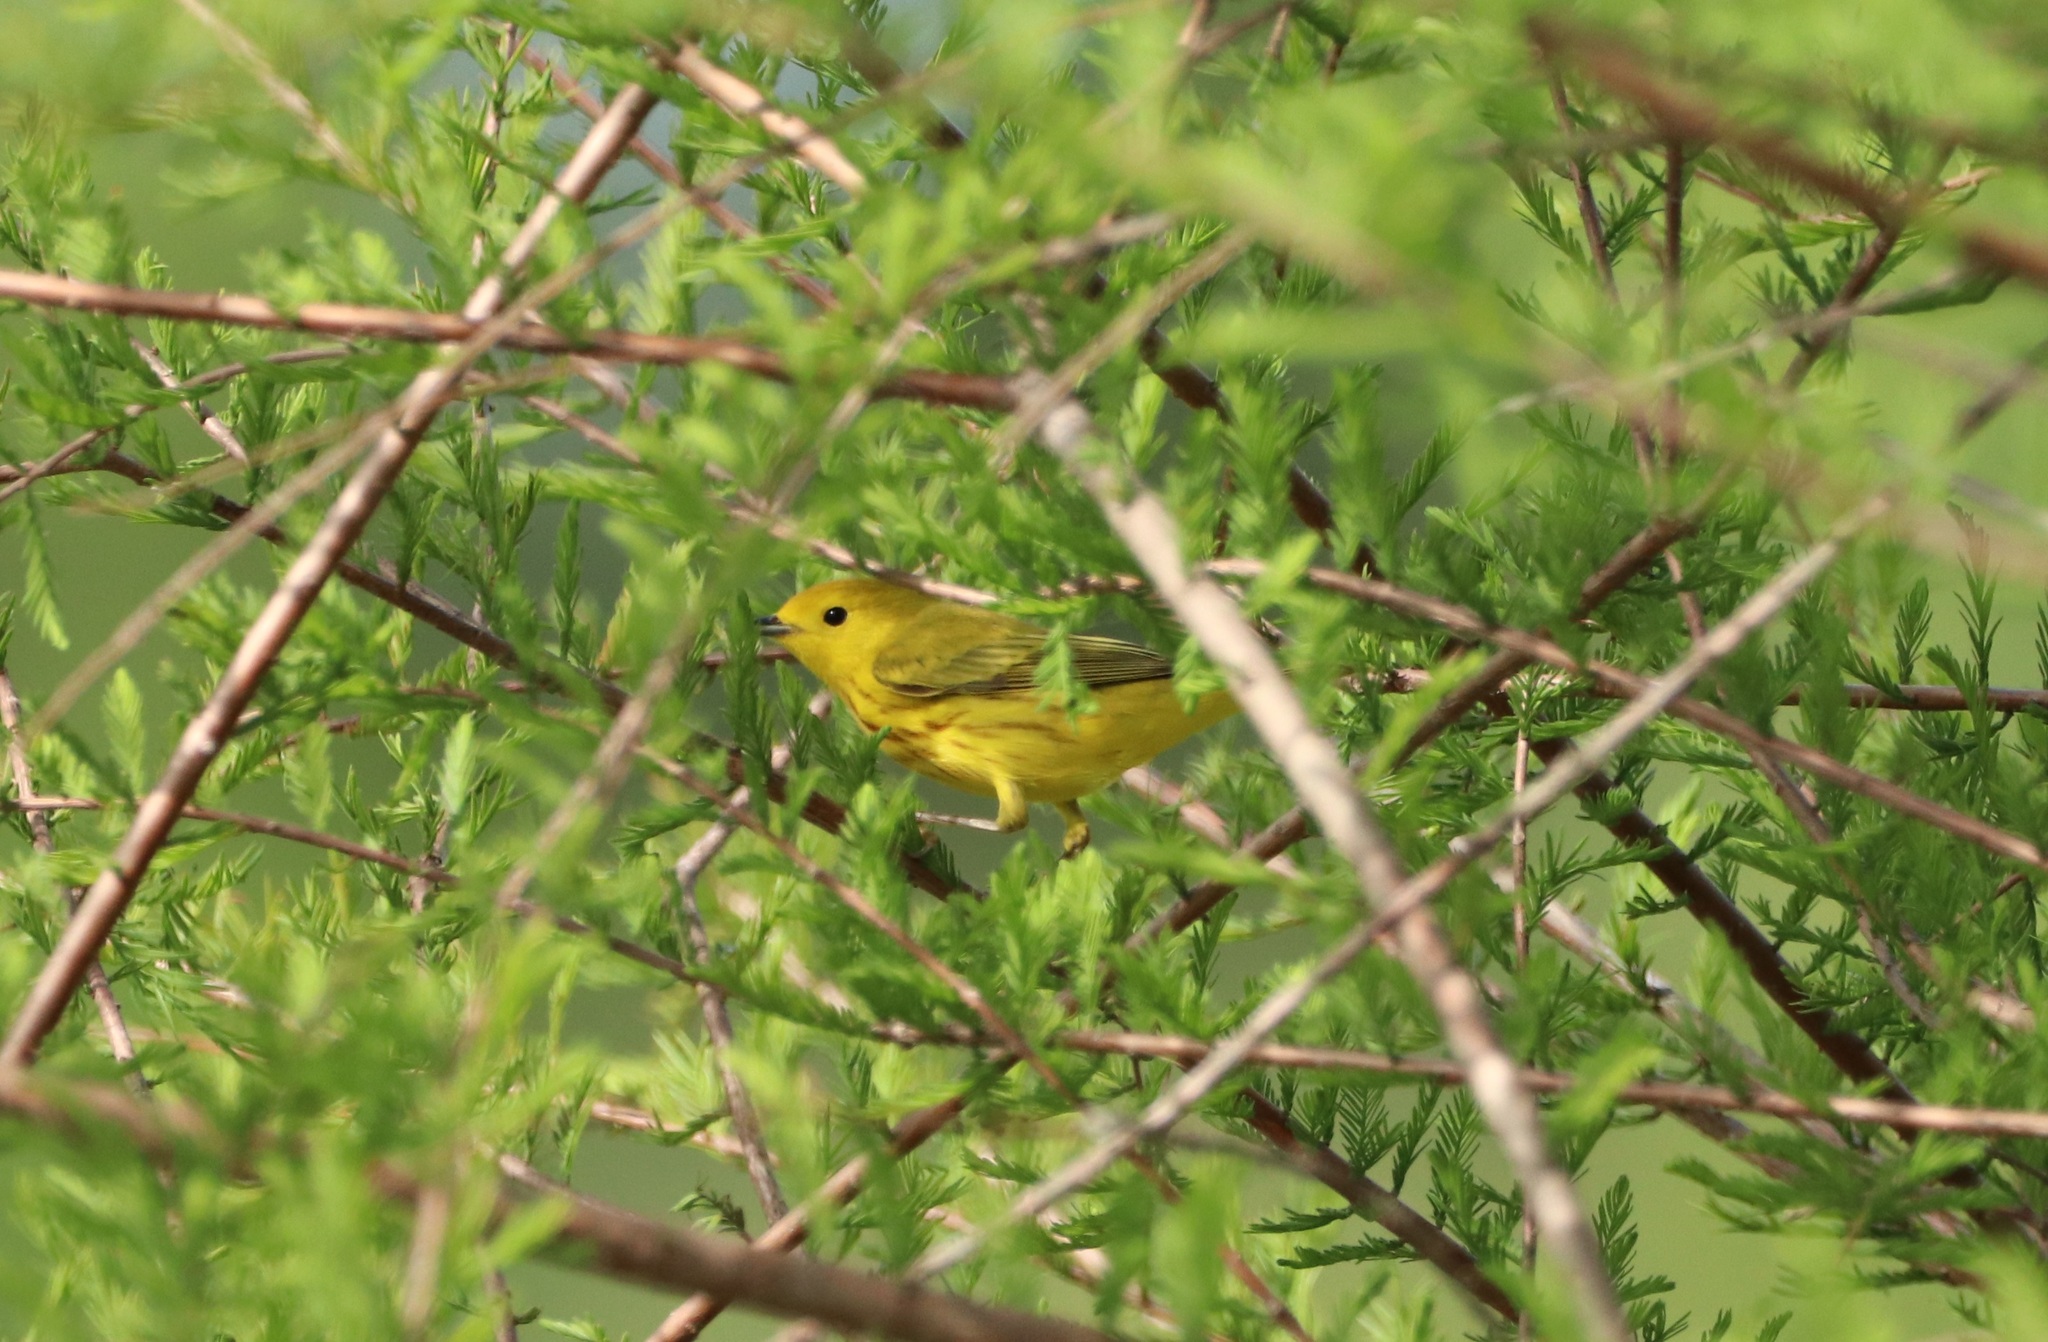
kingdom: Animalia
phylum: Chordata
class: Aves
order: Passeriformes
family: Parulidae
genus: Setophaga
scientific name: Setophaga petechia
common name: Yellow warbler
